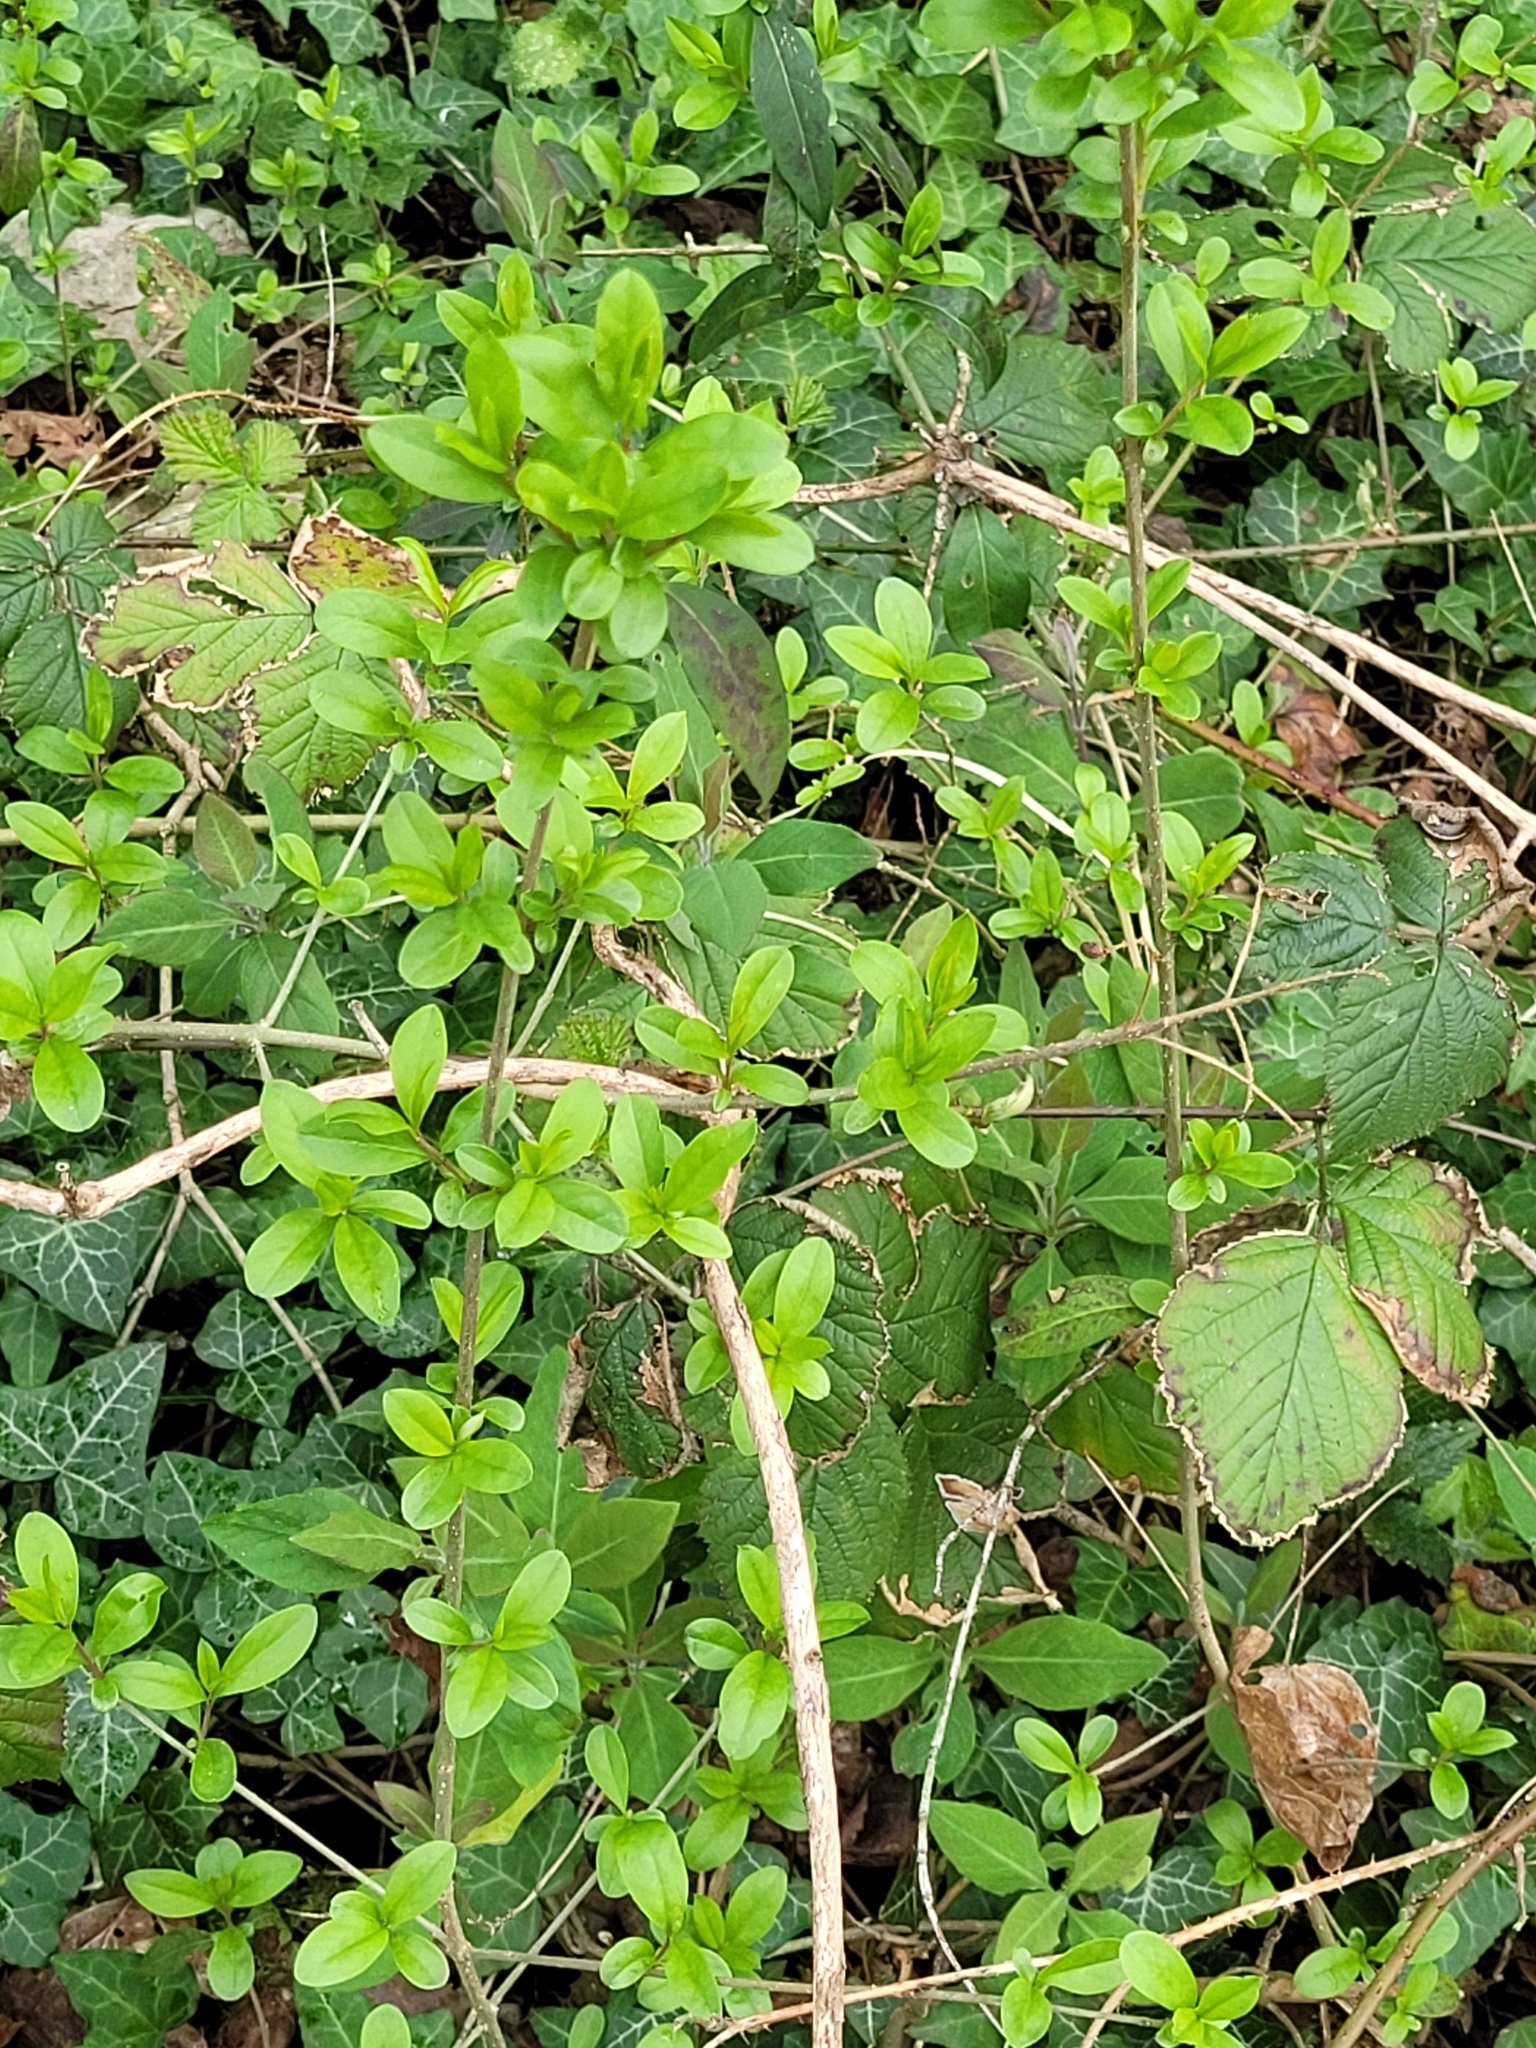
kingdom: Plantae
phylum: Tracheophyta
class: Magnoliopsida
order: Lamiales
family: Oleaceae
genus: Ligustrum
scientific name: Ligustrum vulgare
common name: Wild privet
